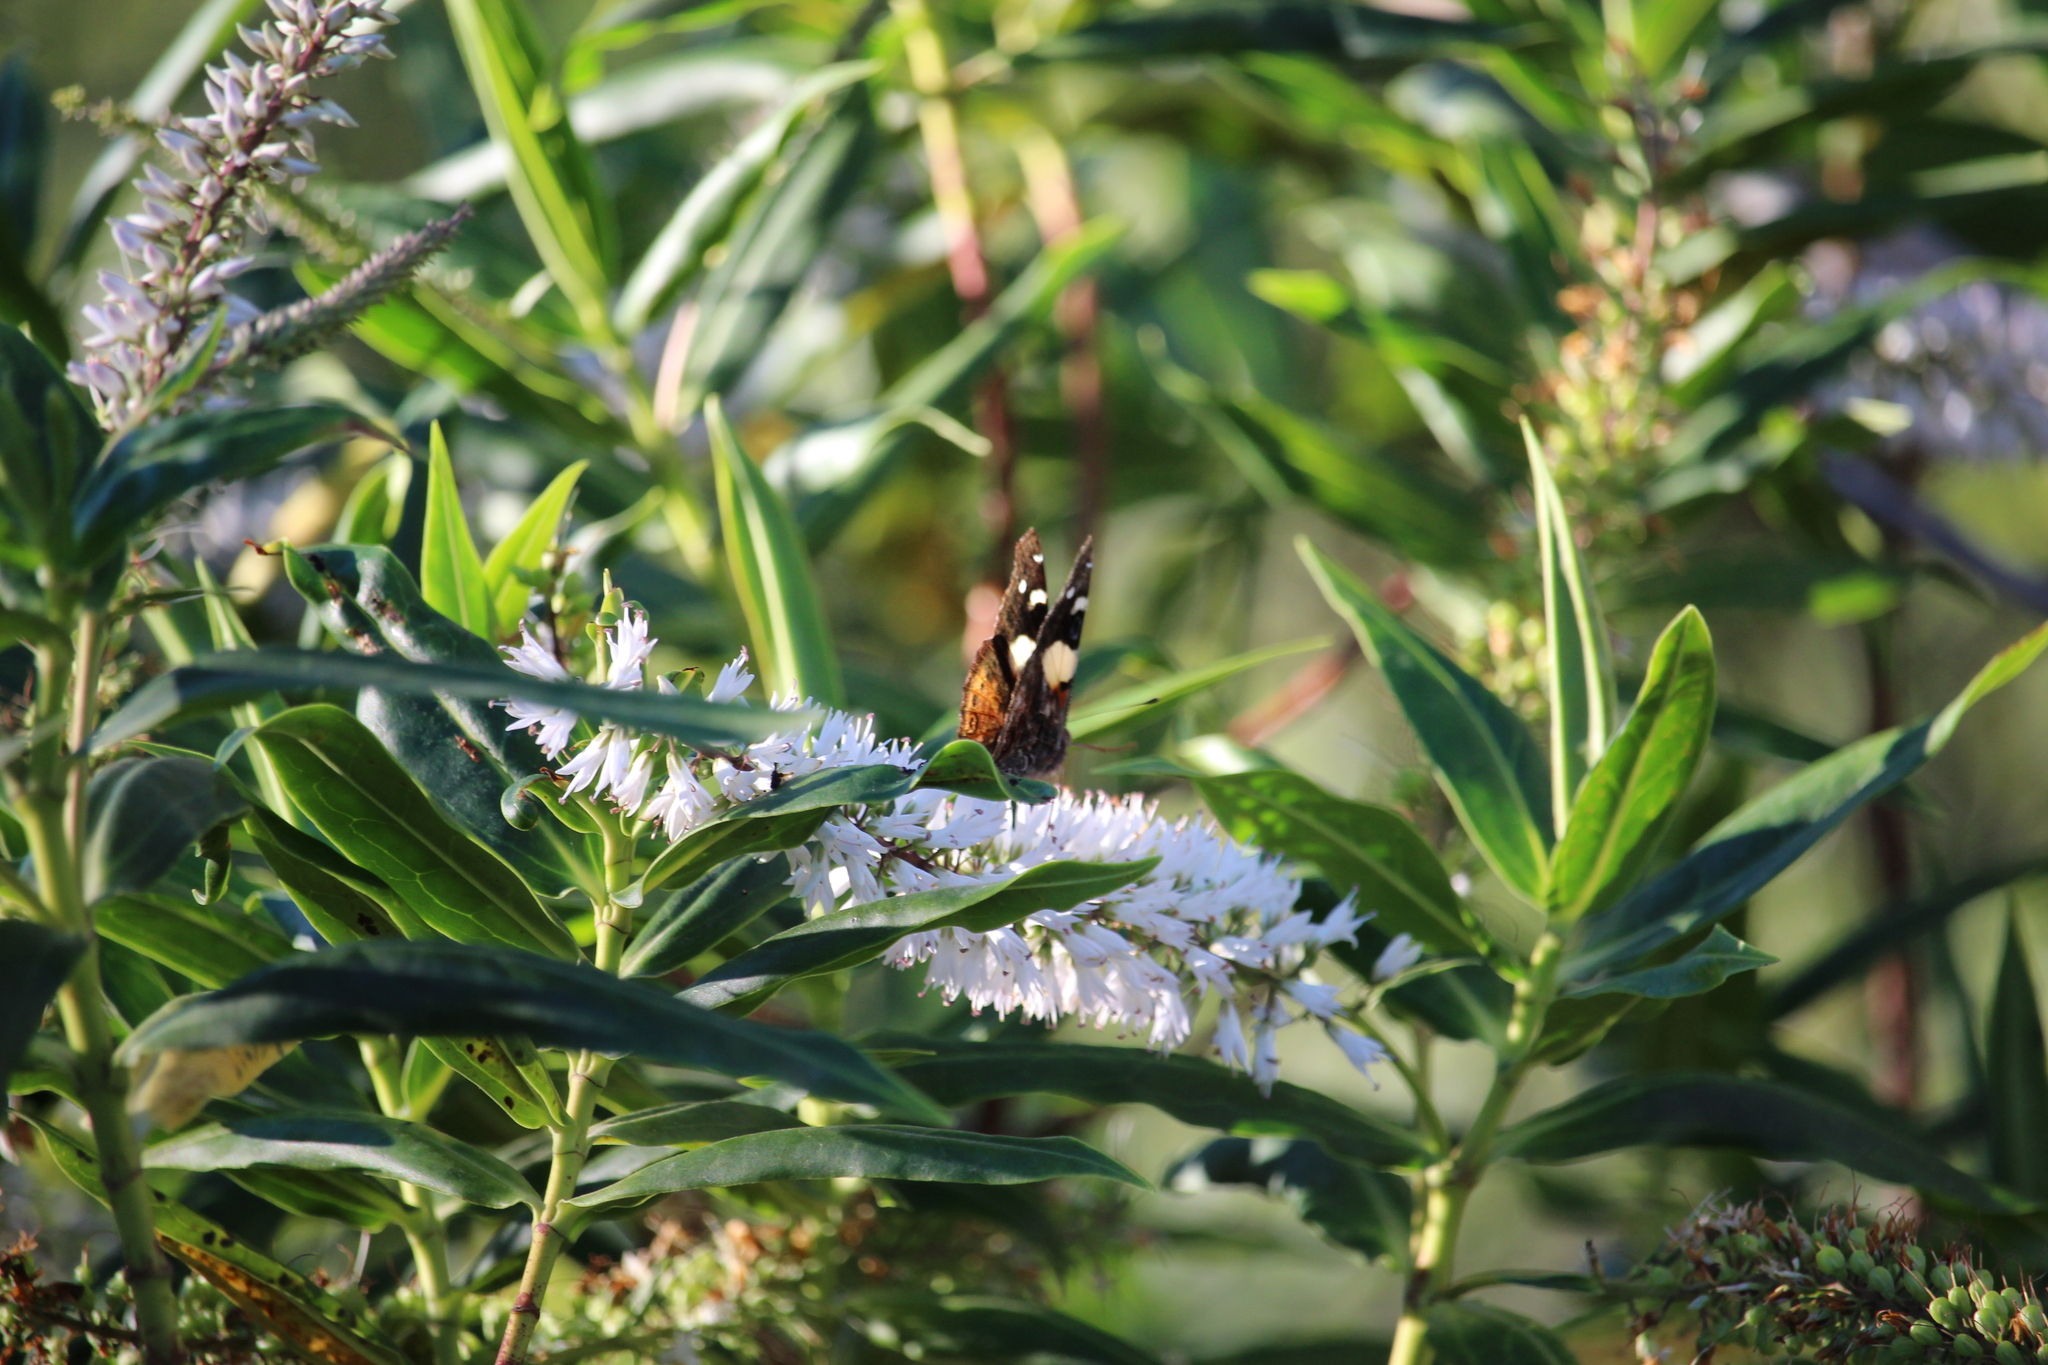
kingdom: Animalia
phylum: Arthropoda
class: Insecta
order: Lepidoptera
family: Nymphalidae
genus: Vanessa
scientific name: Vanessa itea
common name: Yellow admiral
